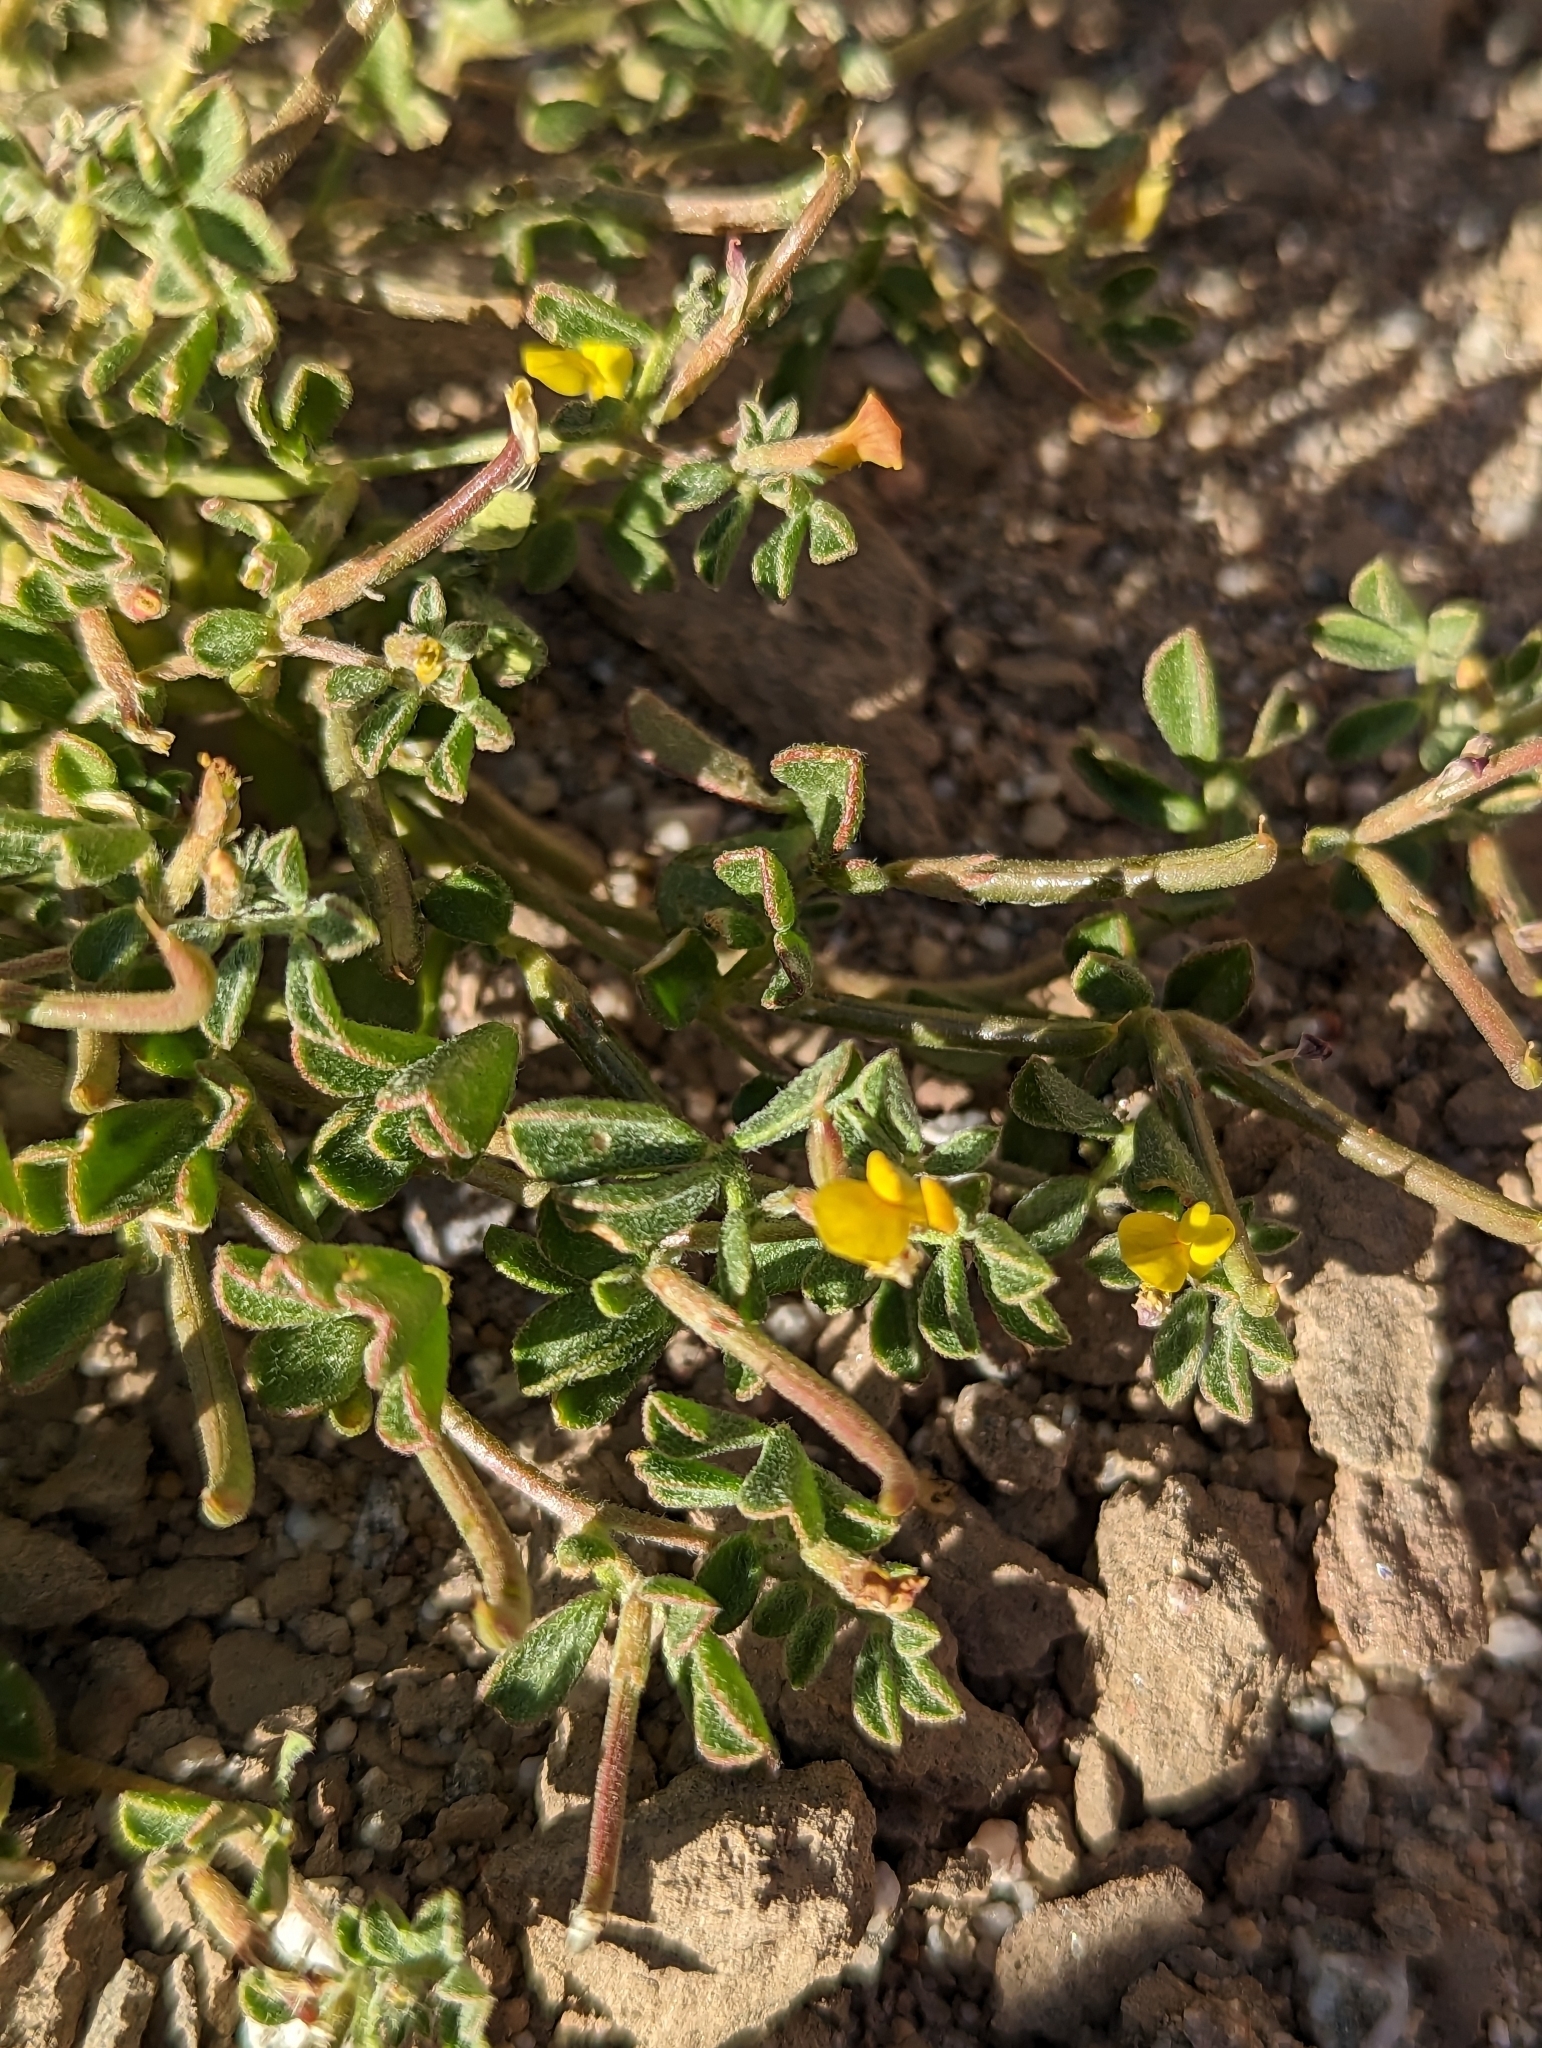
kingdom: Plantae
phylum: Tracheophyta
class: Magnoliopsida
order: Fabales
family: Fabaceae
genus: Acmispon
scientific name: Acmispon strigosus
